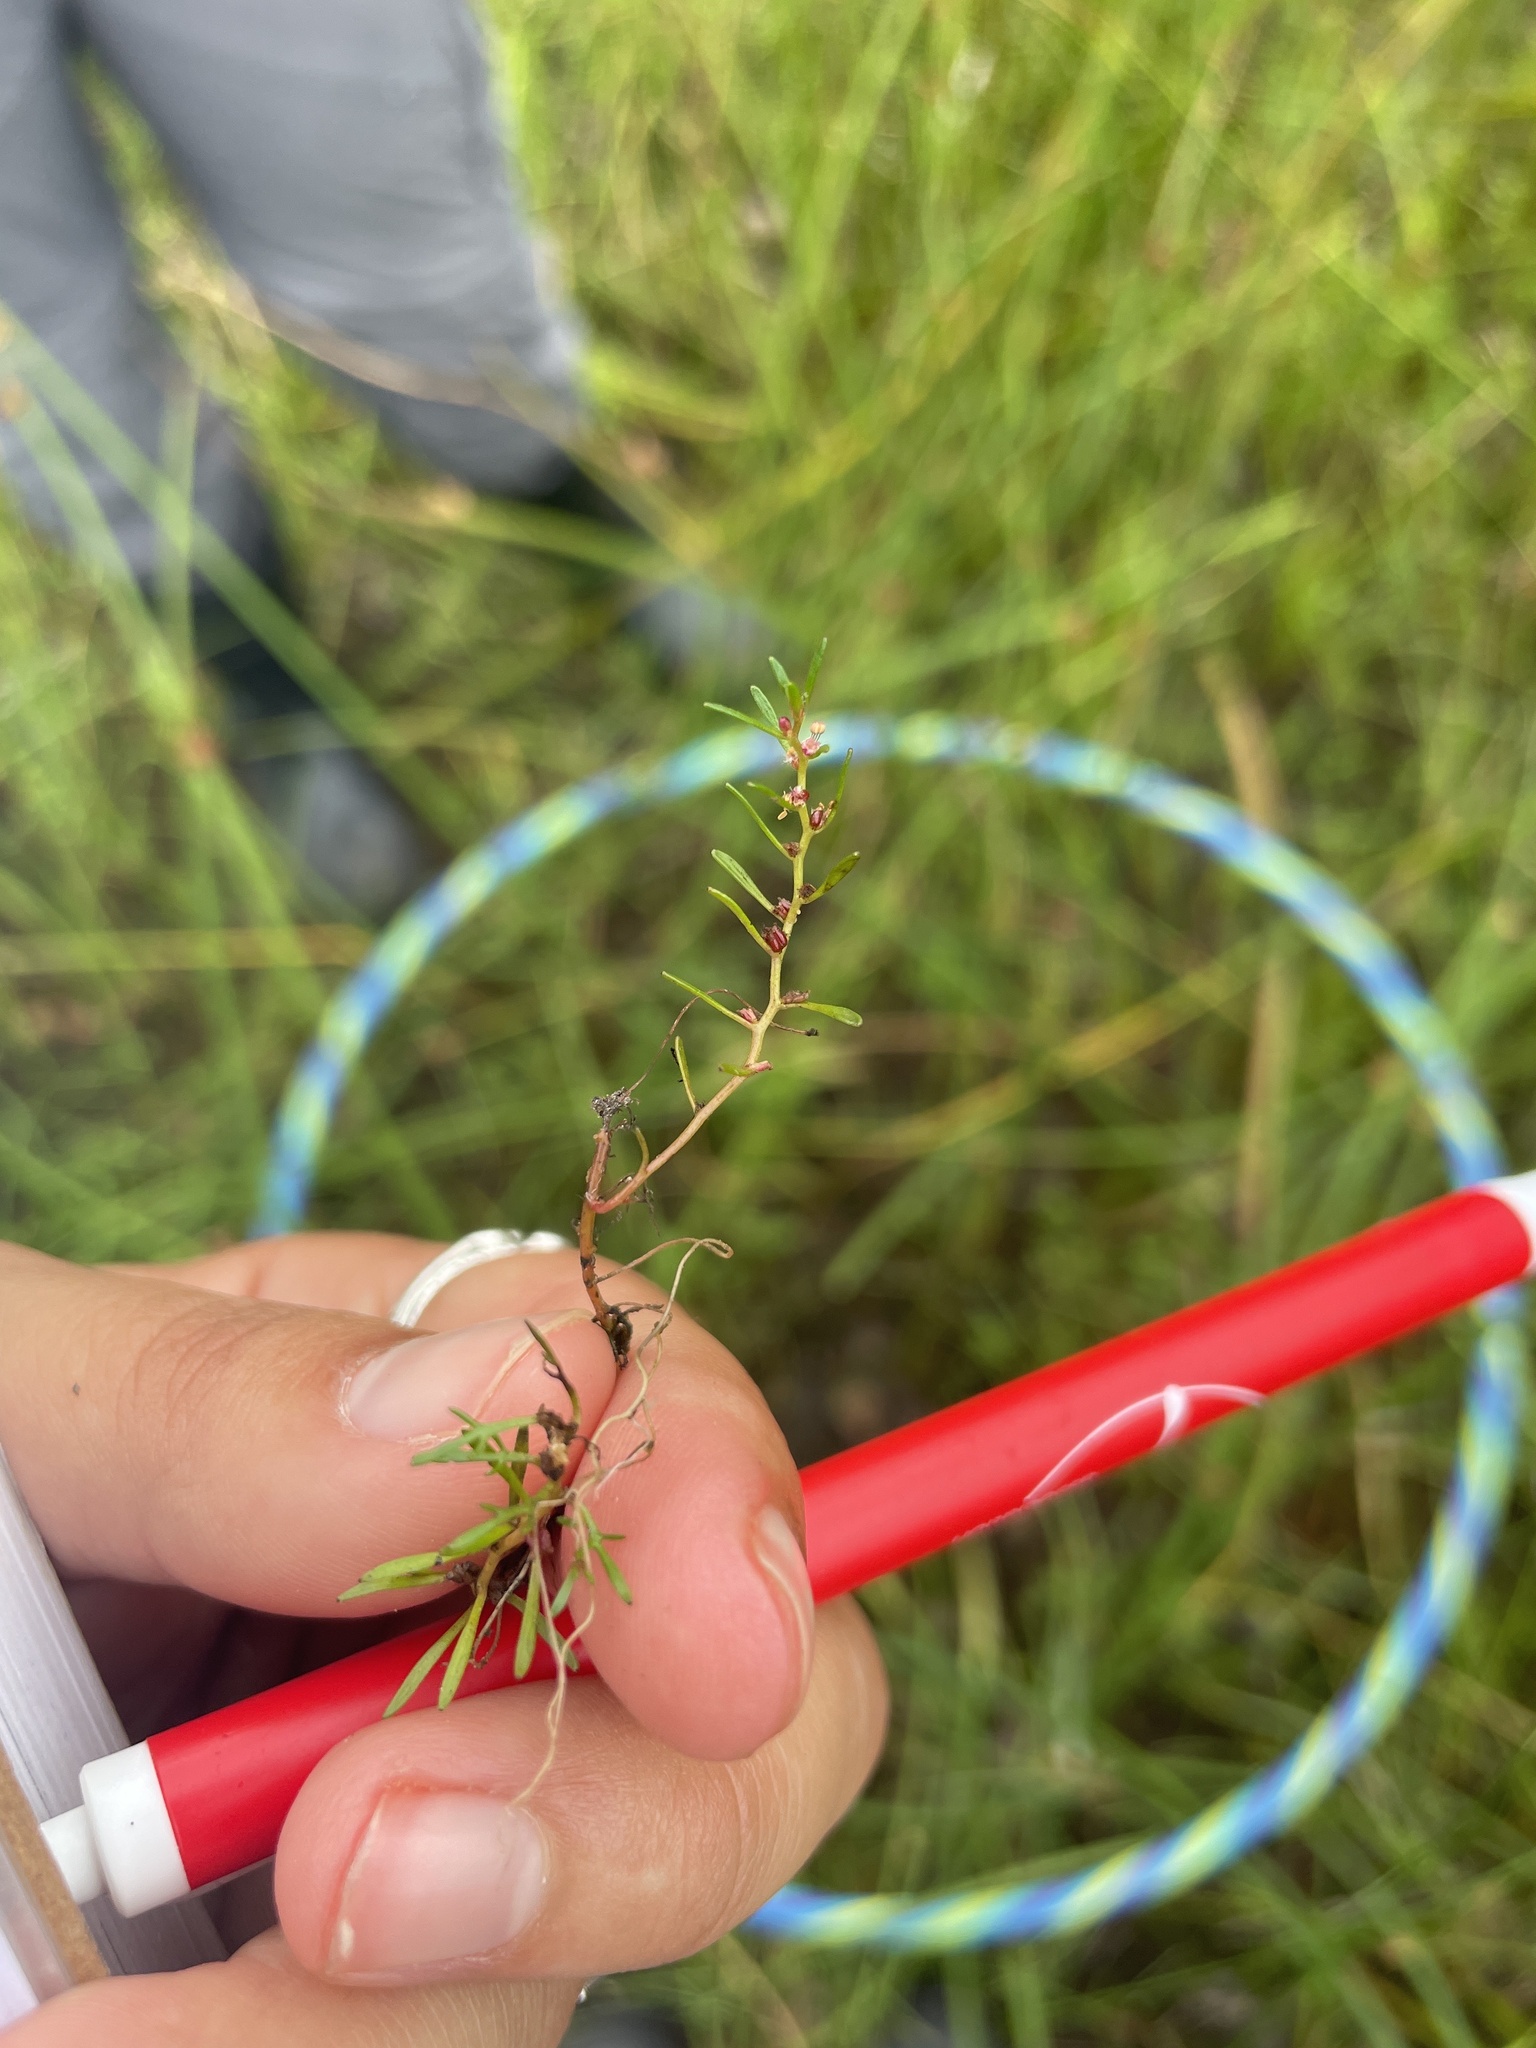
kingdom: Plantae
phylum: Tracheophyta
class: Magnoliopsida
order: Saxifragales
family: Haloragaceae
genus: Myriophyllum
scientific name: Myriophyllum humile
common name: Low water-milfoil
